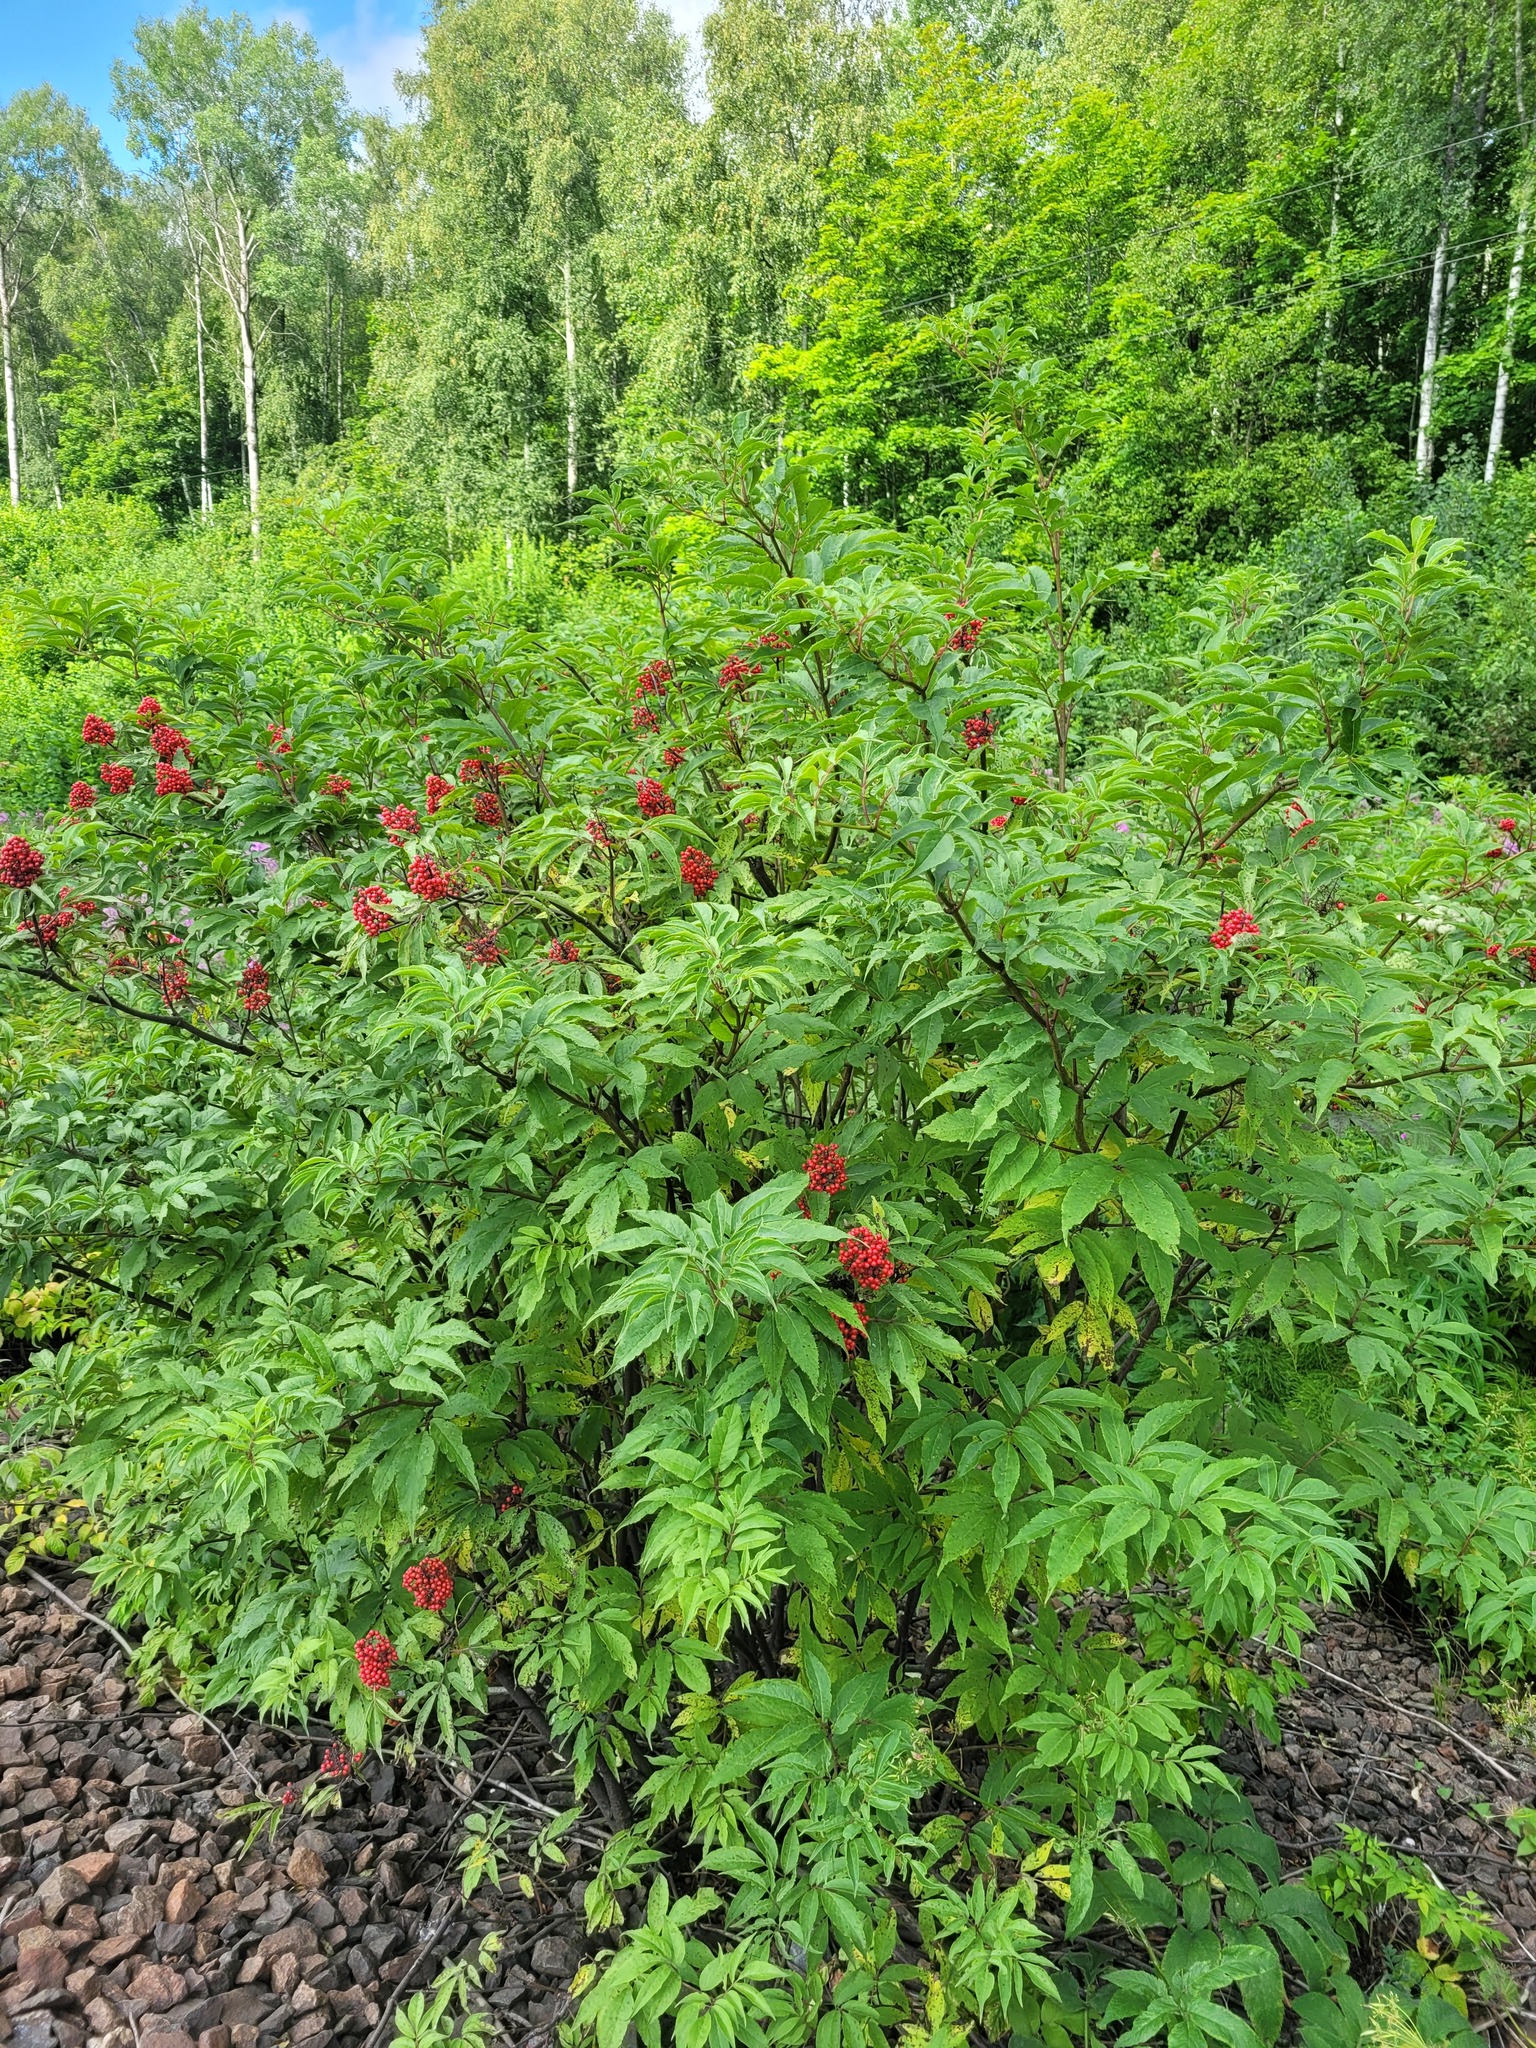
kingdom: Plantae
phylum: Tracheophyta
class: Magnoliopsida
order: Dipsacales
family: Viburnaceae
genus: Sambucus
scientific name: Sambucus racemosa
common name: Red-berried elder
